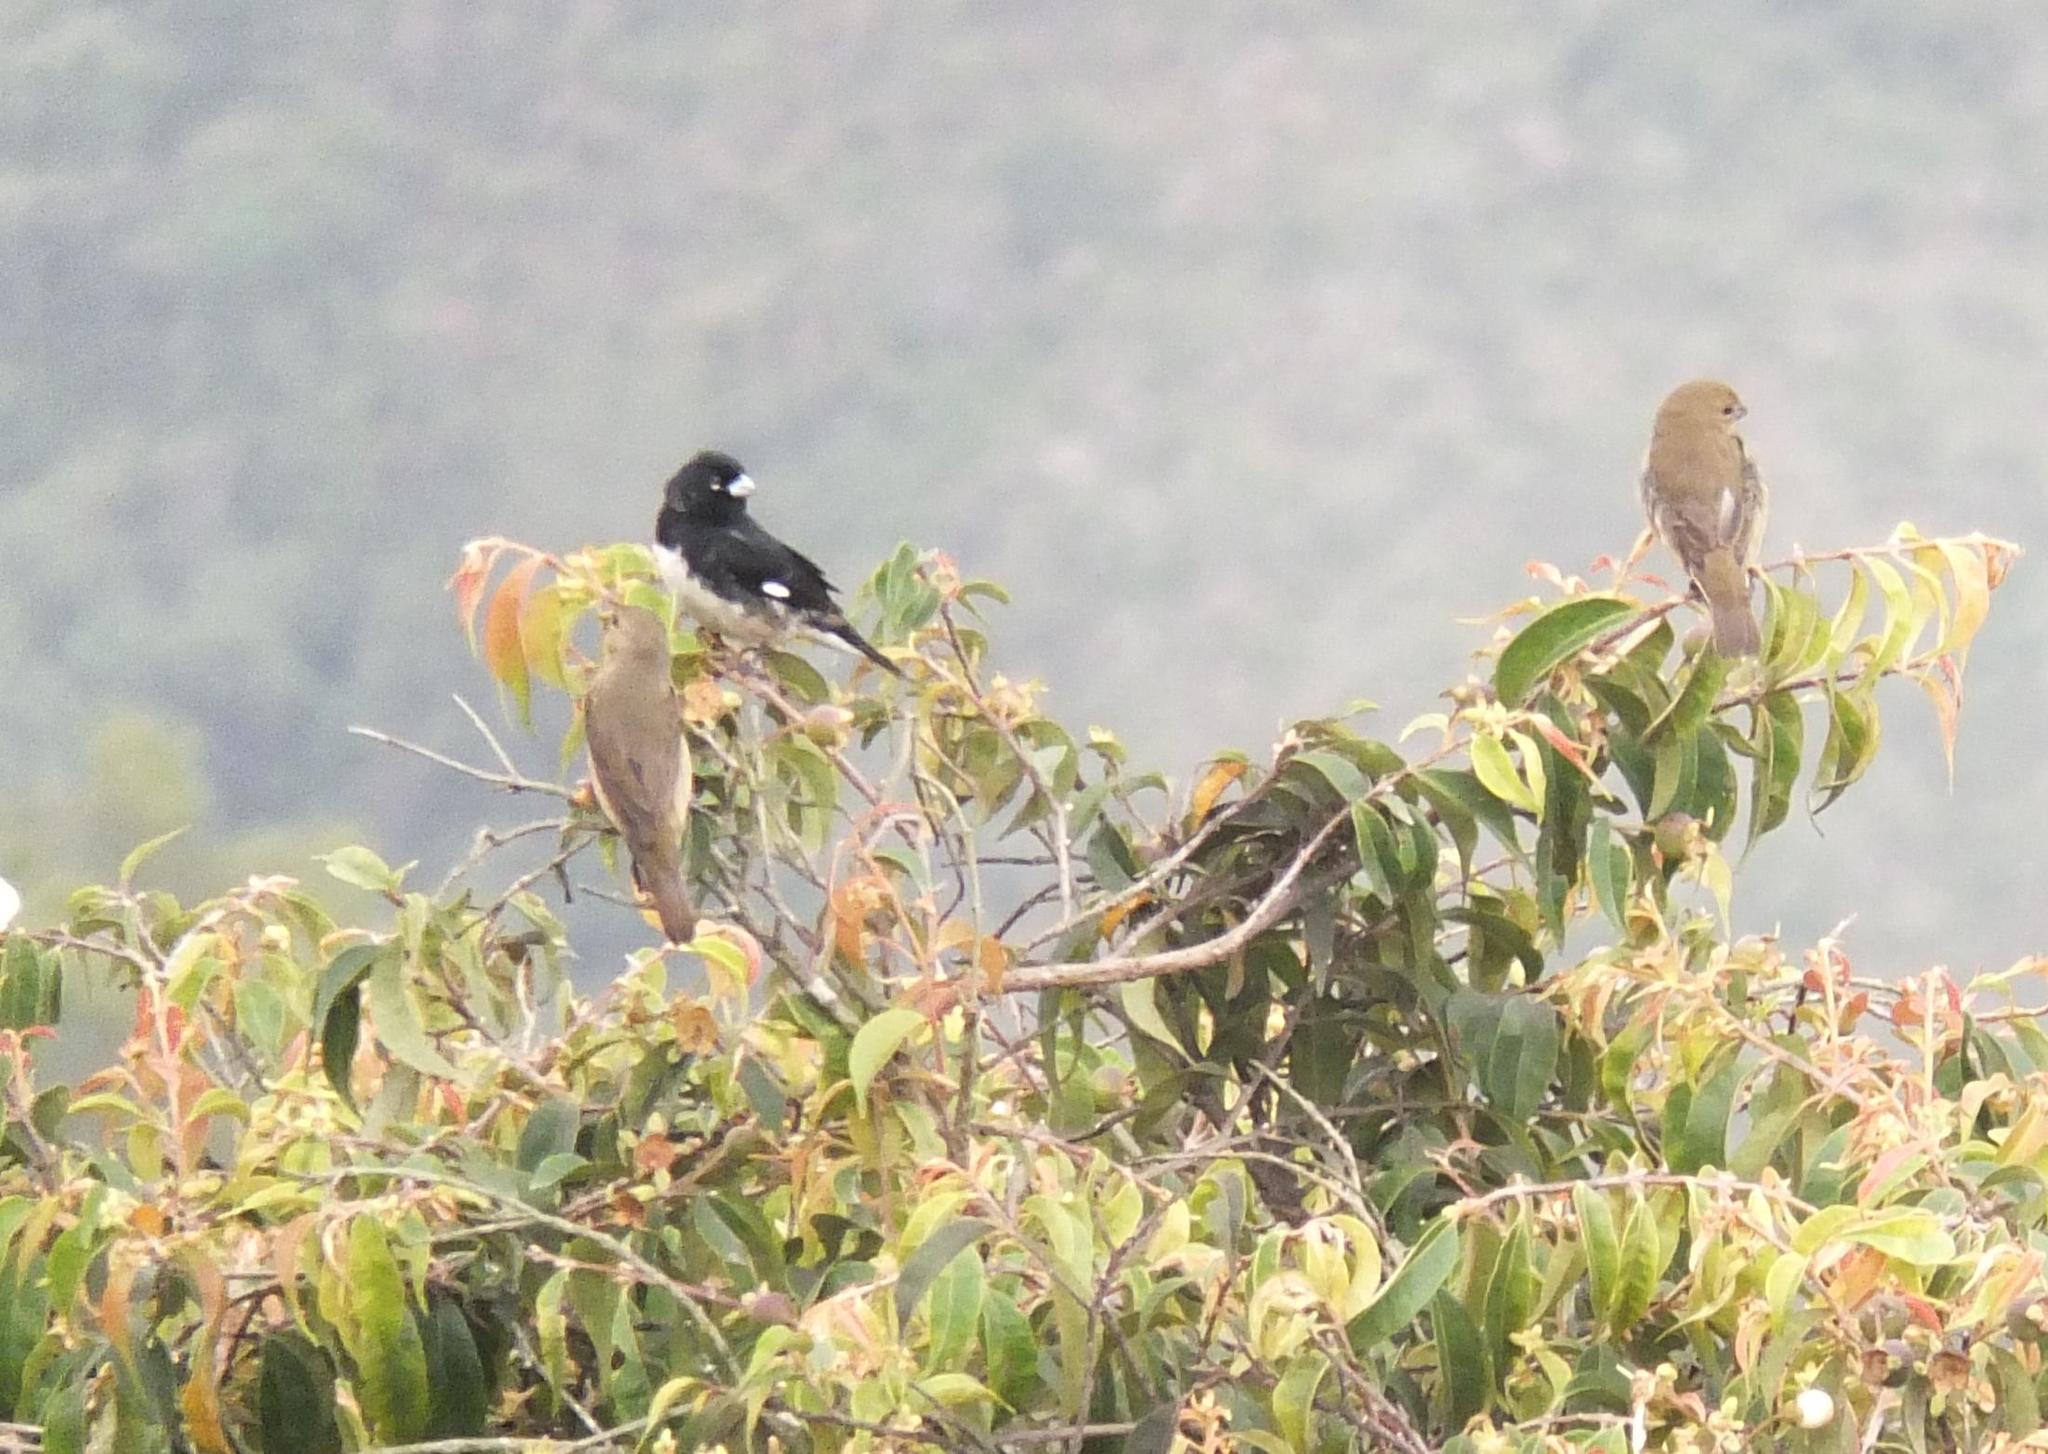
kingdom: Animalia
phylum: Chordata
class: Aves
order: Passeriformes
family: Thraupidae
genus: Sporophila
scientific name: Sporophila nigricollis
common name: Yellow-bellied seedeater
